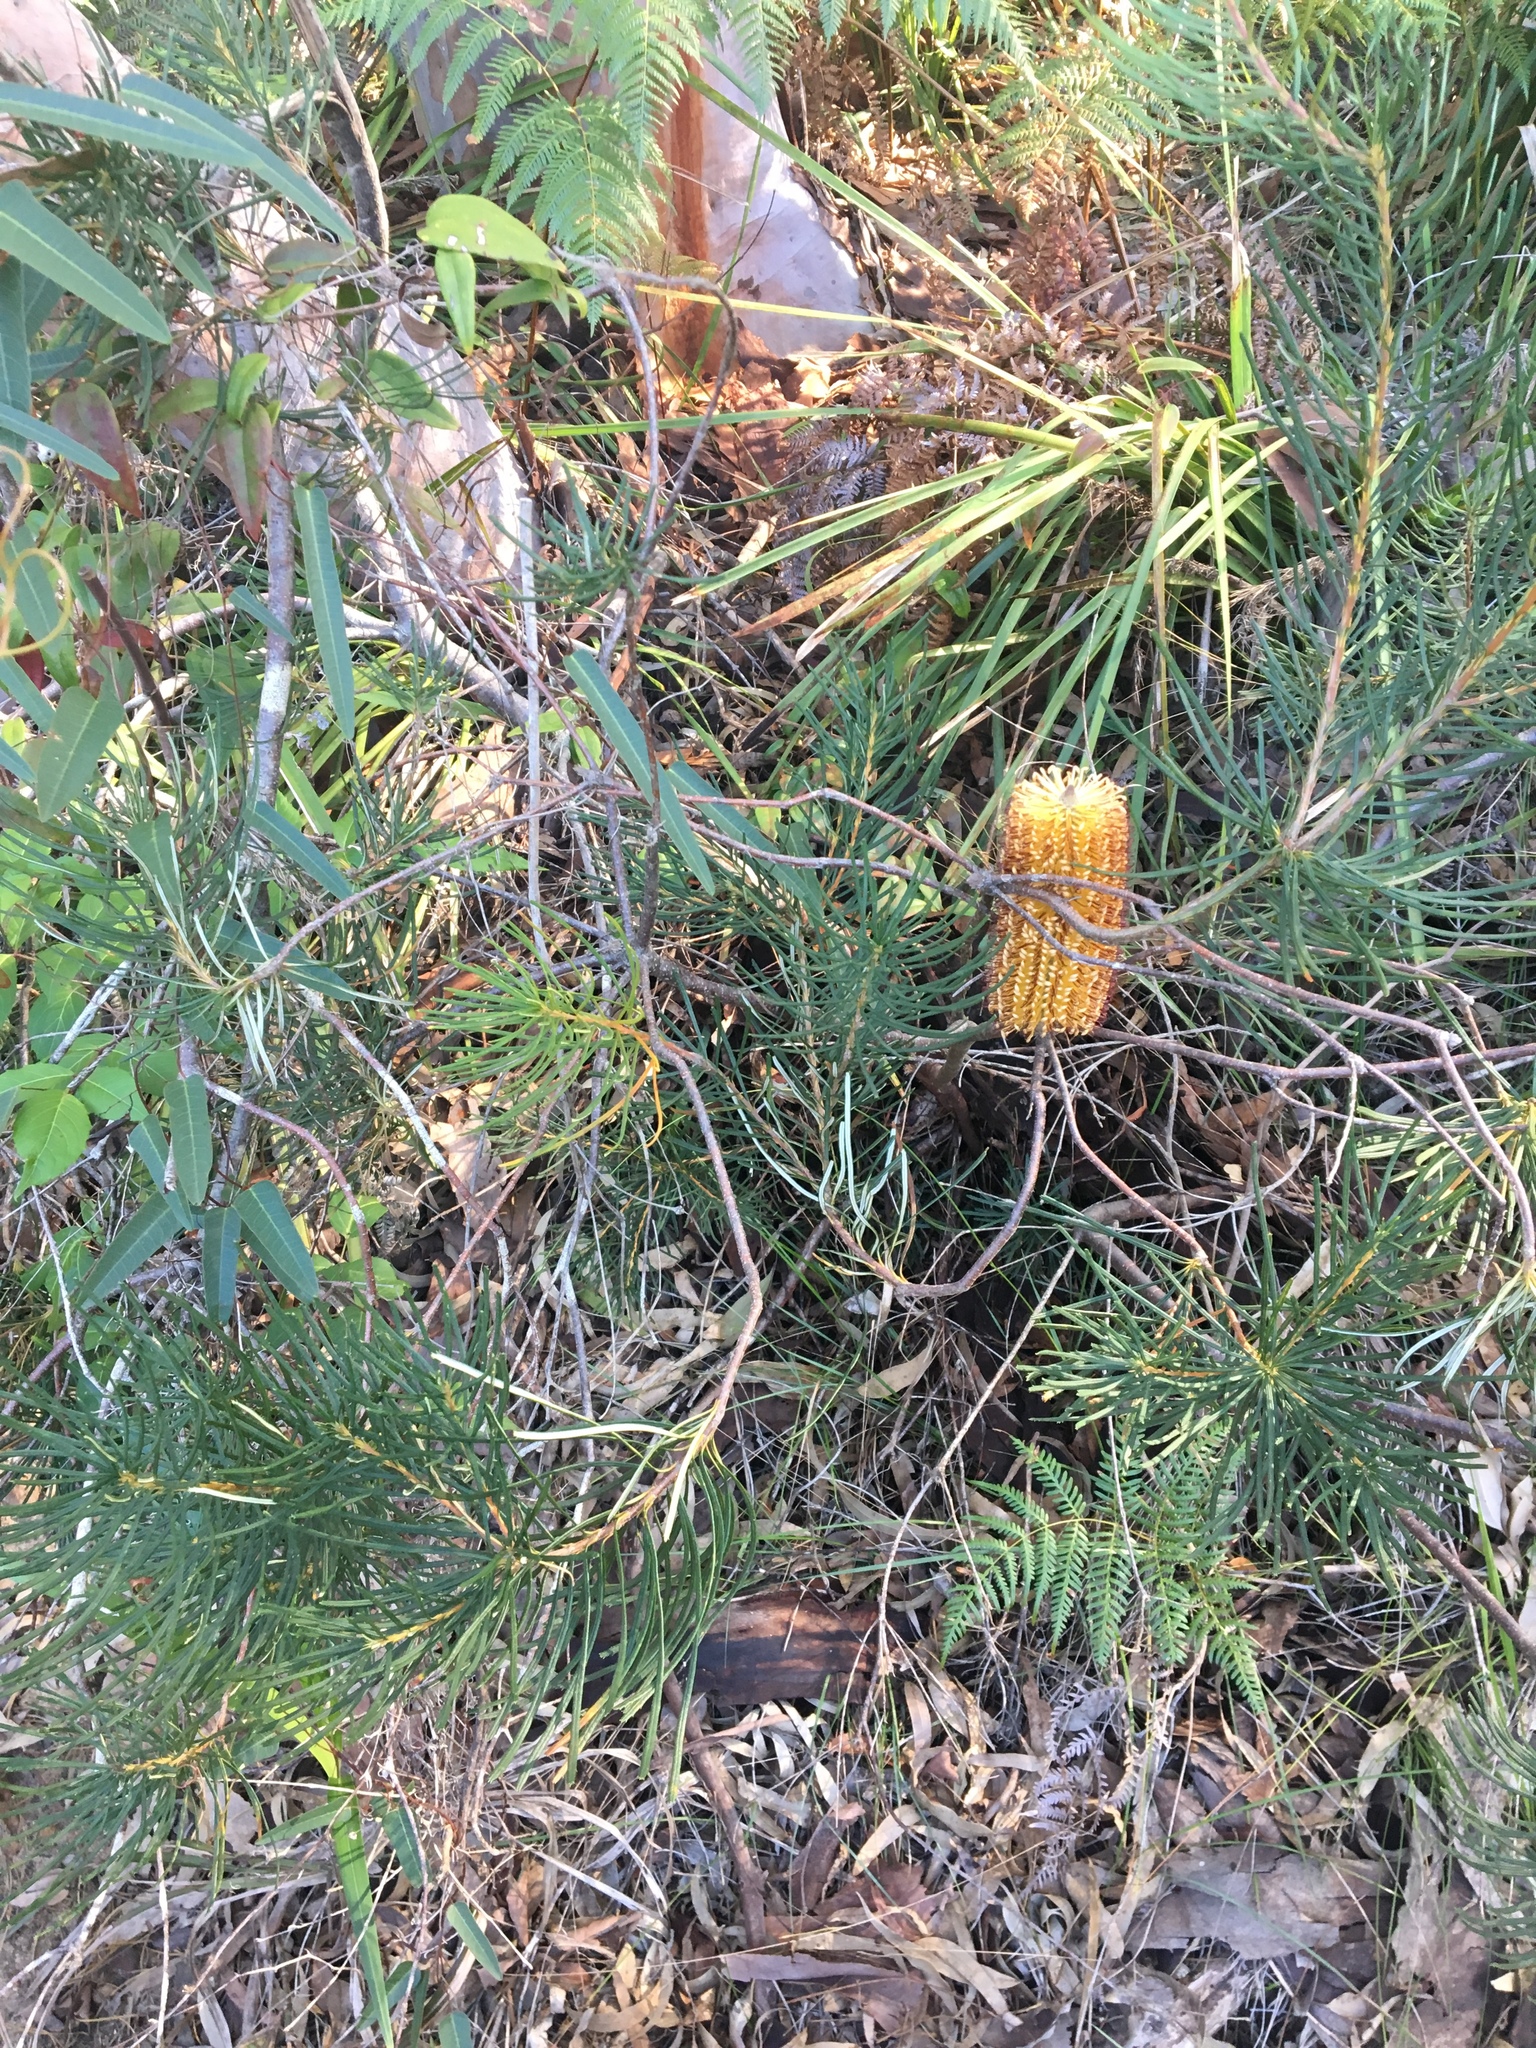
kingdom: Plantae
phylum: Tracheophyta
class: Magnoliopsida
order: Proteales
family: Proteaceae
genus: Banksia
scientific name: Banksia spinulosa
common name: Hairpin banksia
